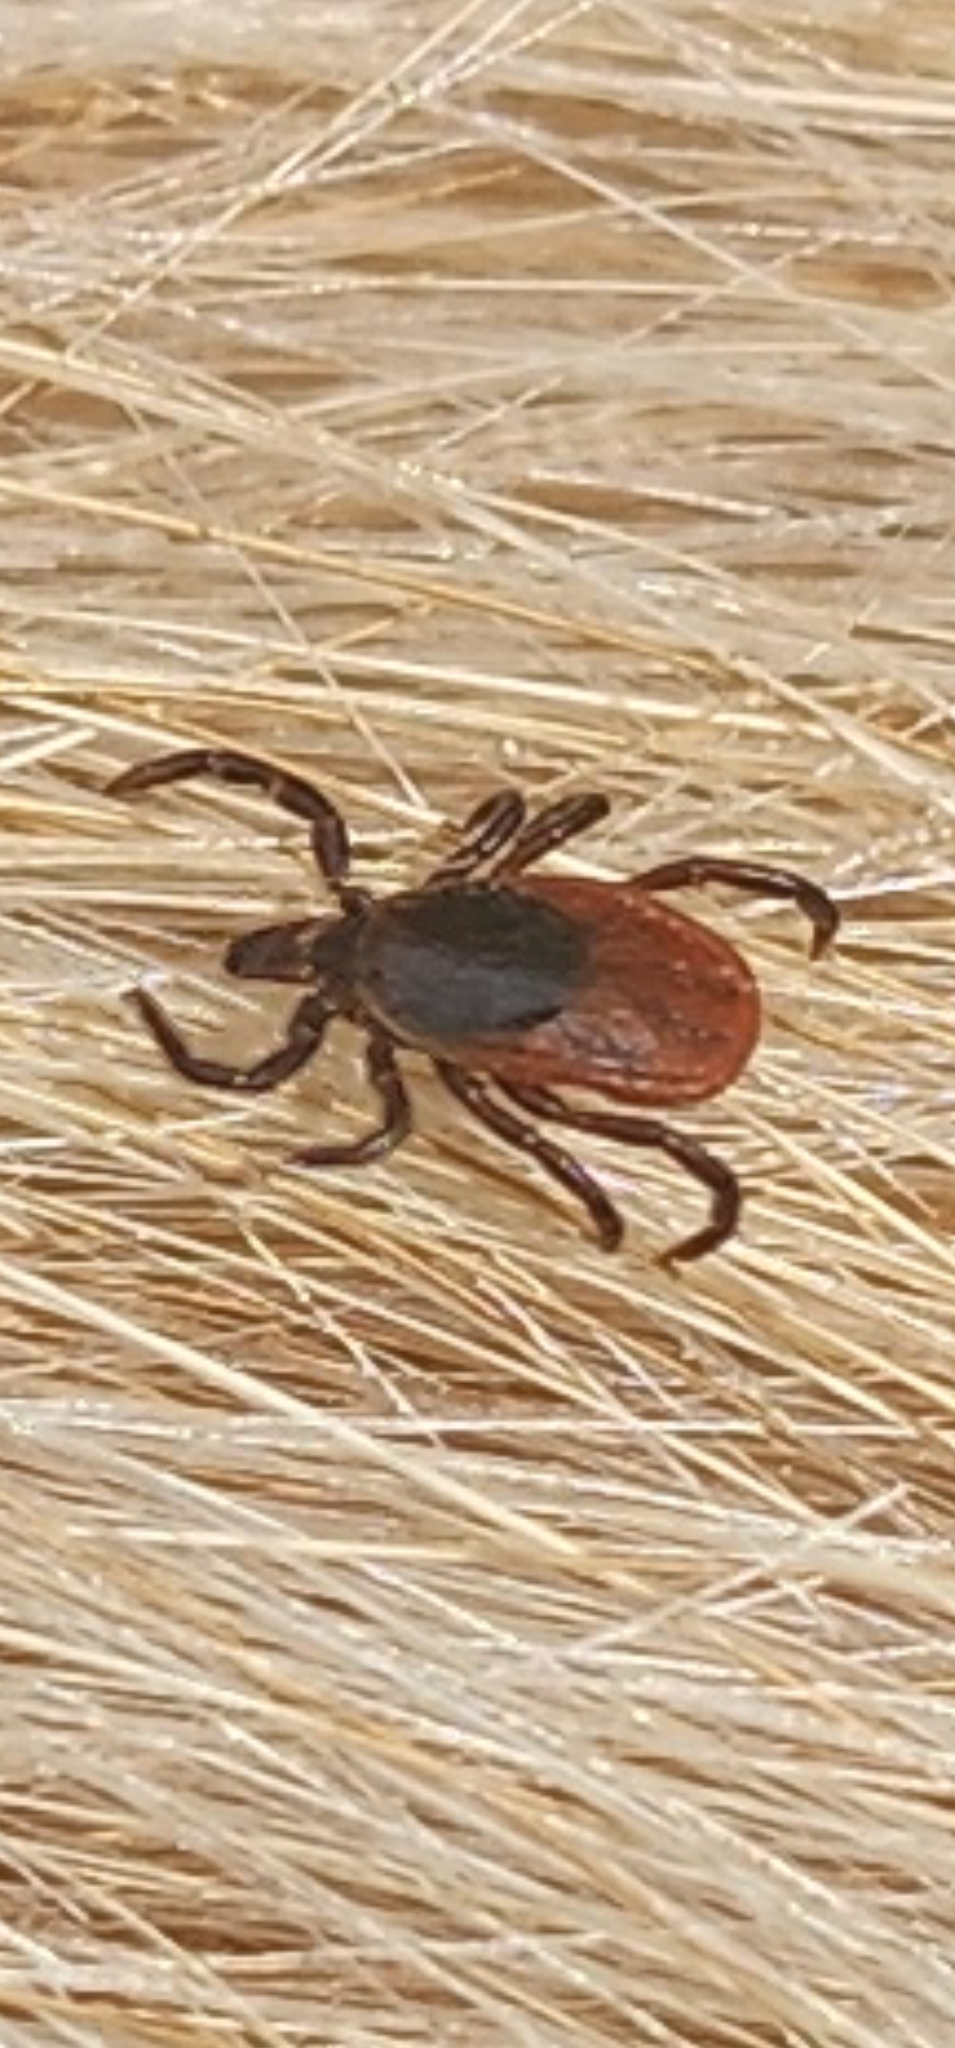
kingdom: Animalia
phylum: Arthropoda
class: Arachnida
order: Ixodida
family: Ixodidae
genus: Ixodes
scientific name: Ixodes scapularis
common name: Black legged tick
